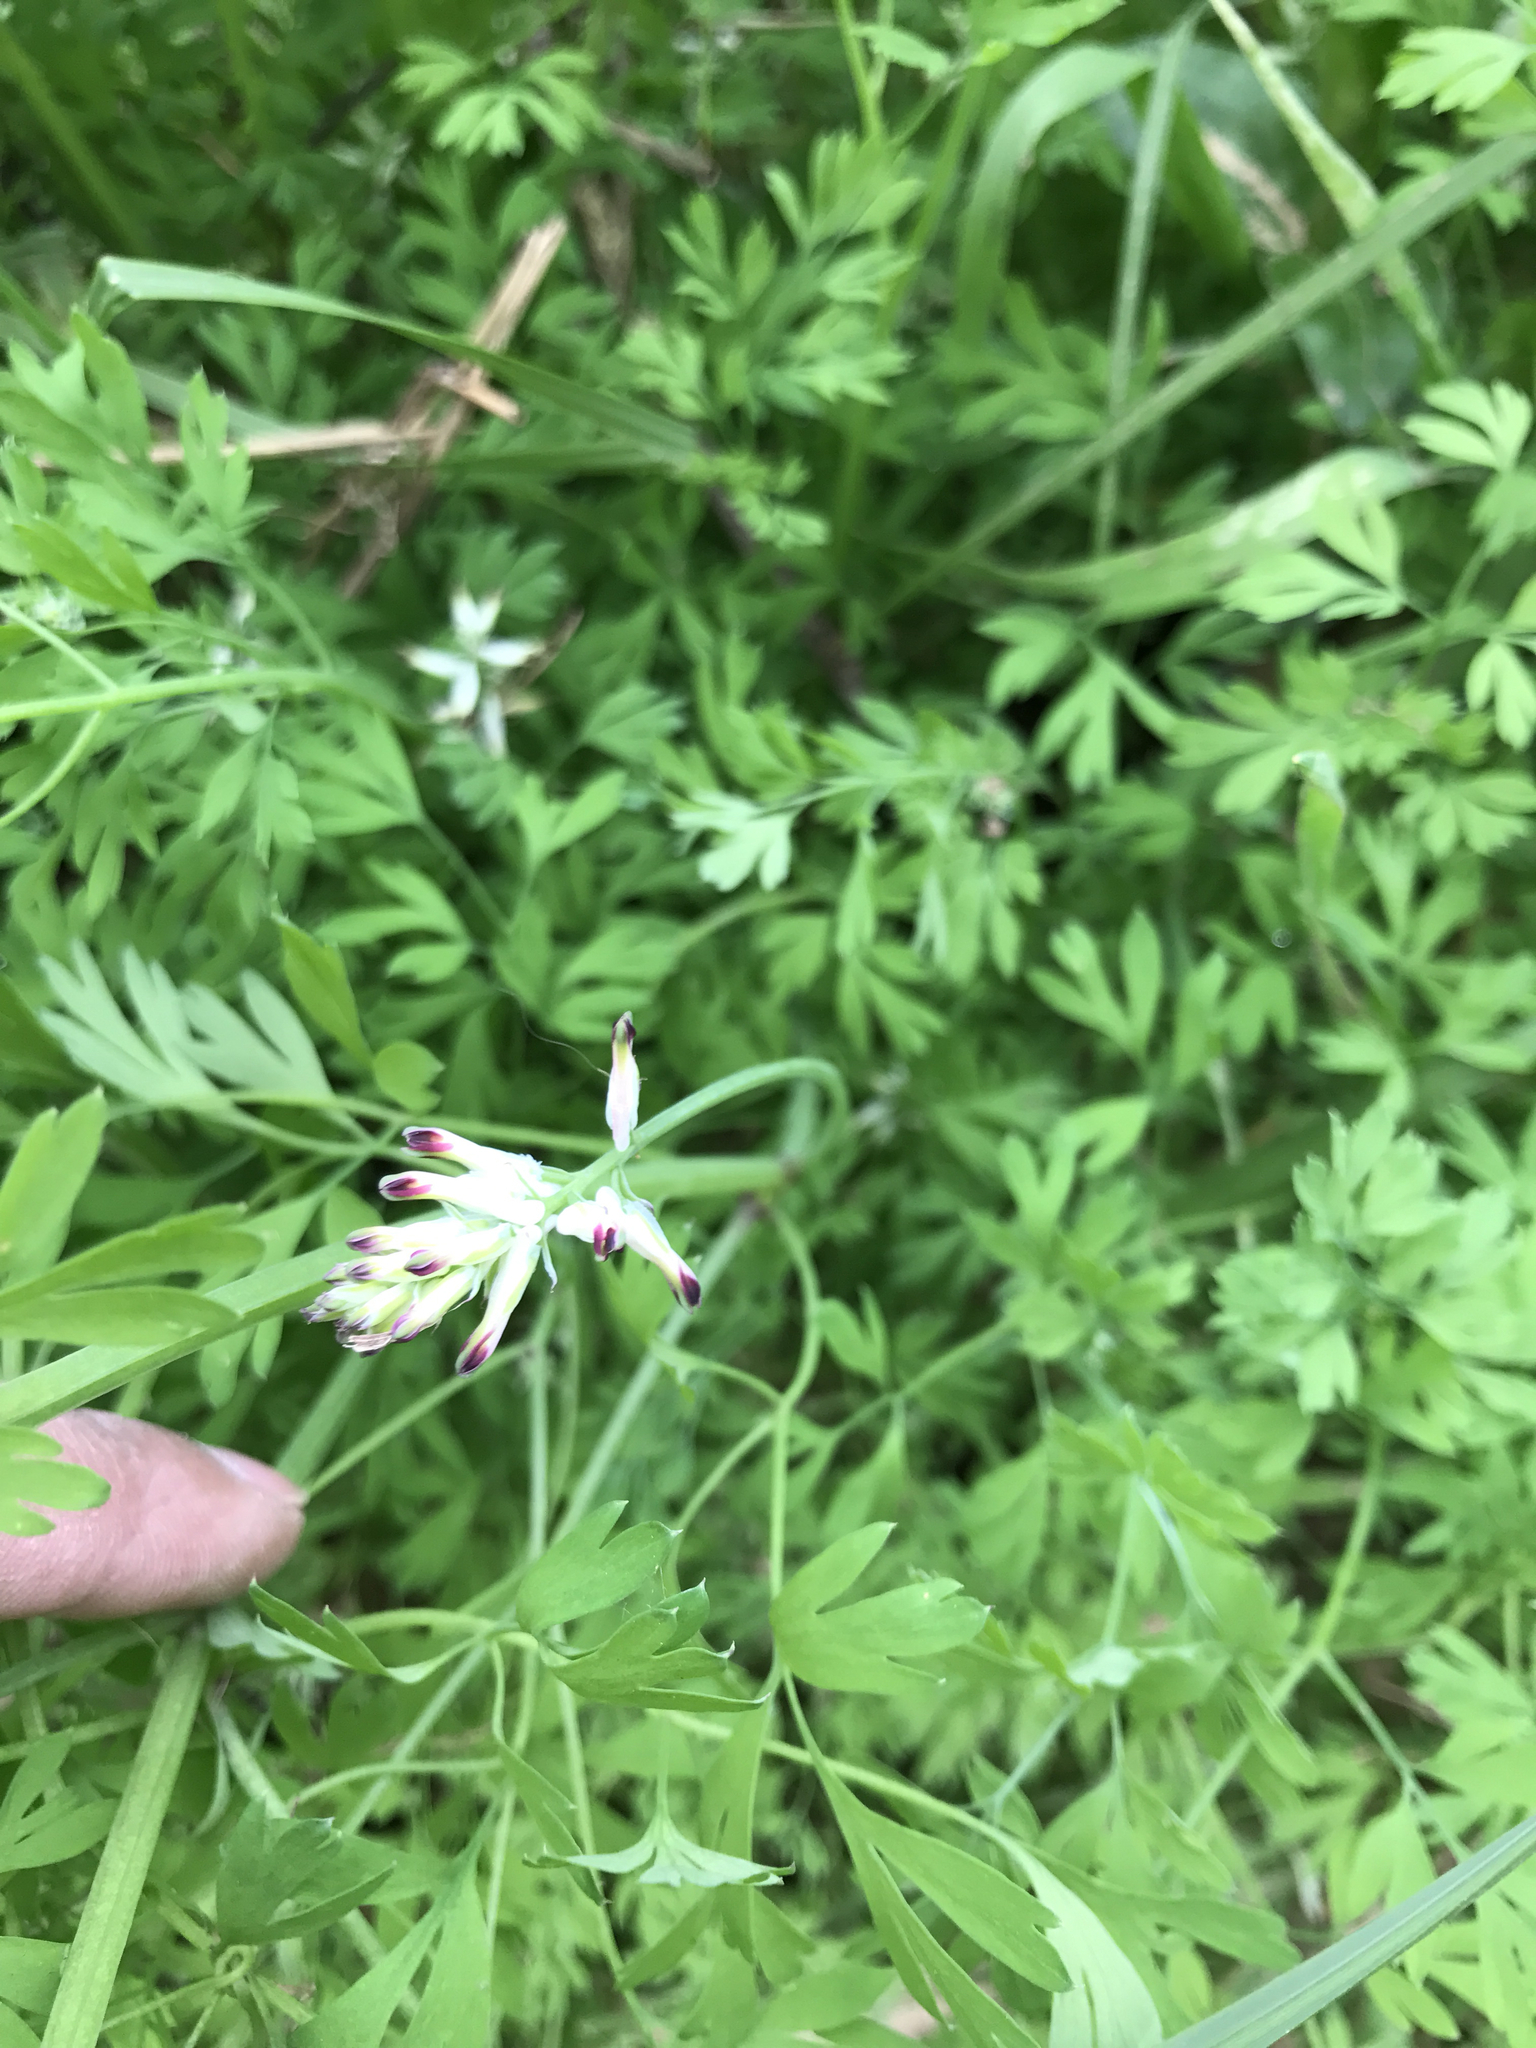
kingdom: Plantae
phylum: Tracheophyta
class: Magnoliopsida
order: Ranunculales
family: Papaveraceae
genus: Fumaria
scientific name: Fumaria capreolata
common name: White ramping-fumitory
